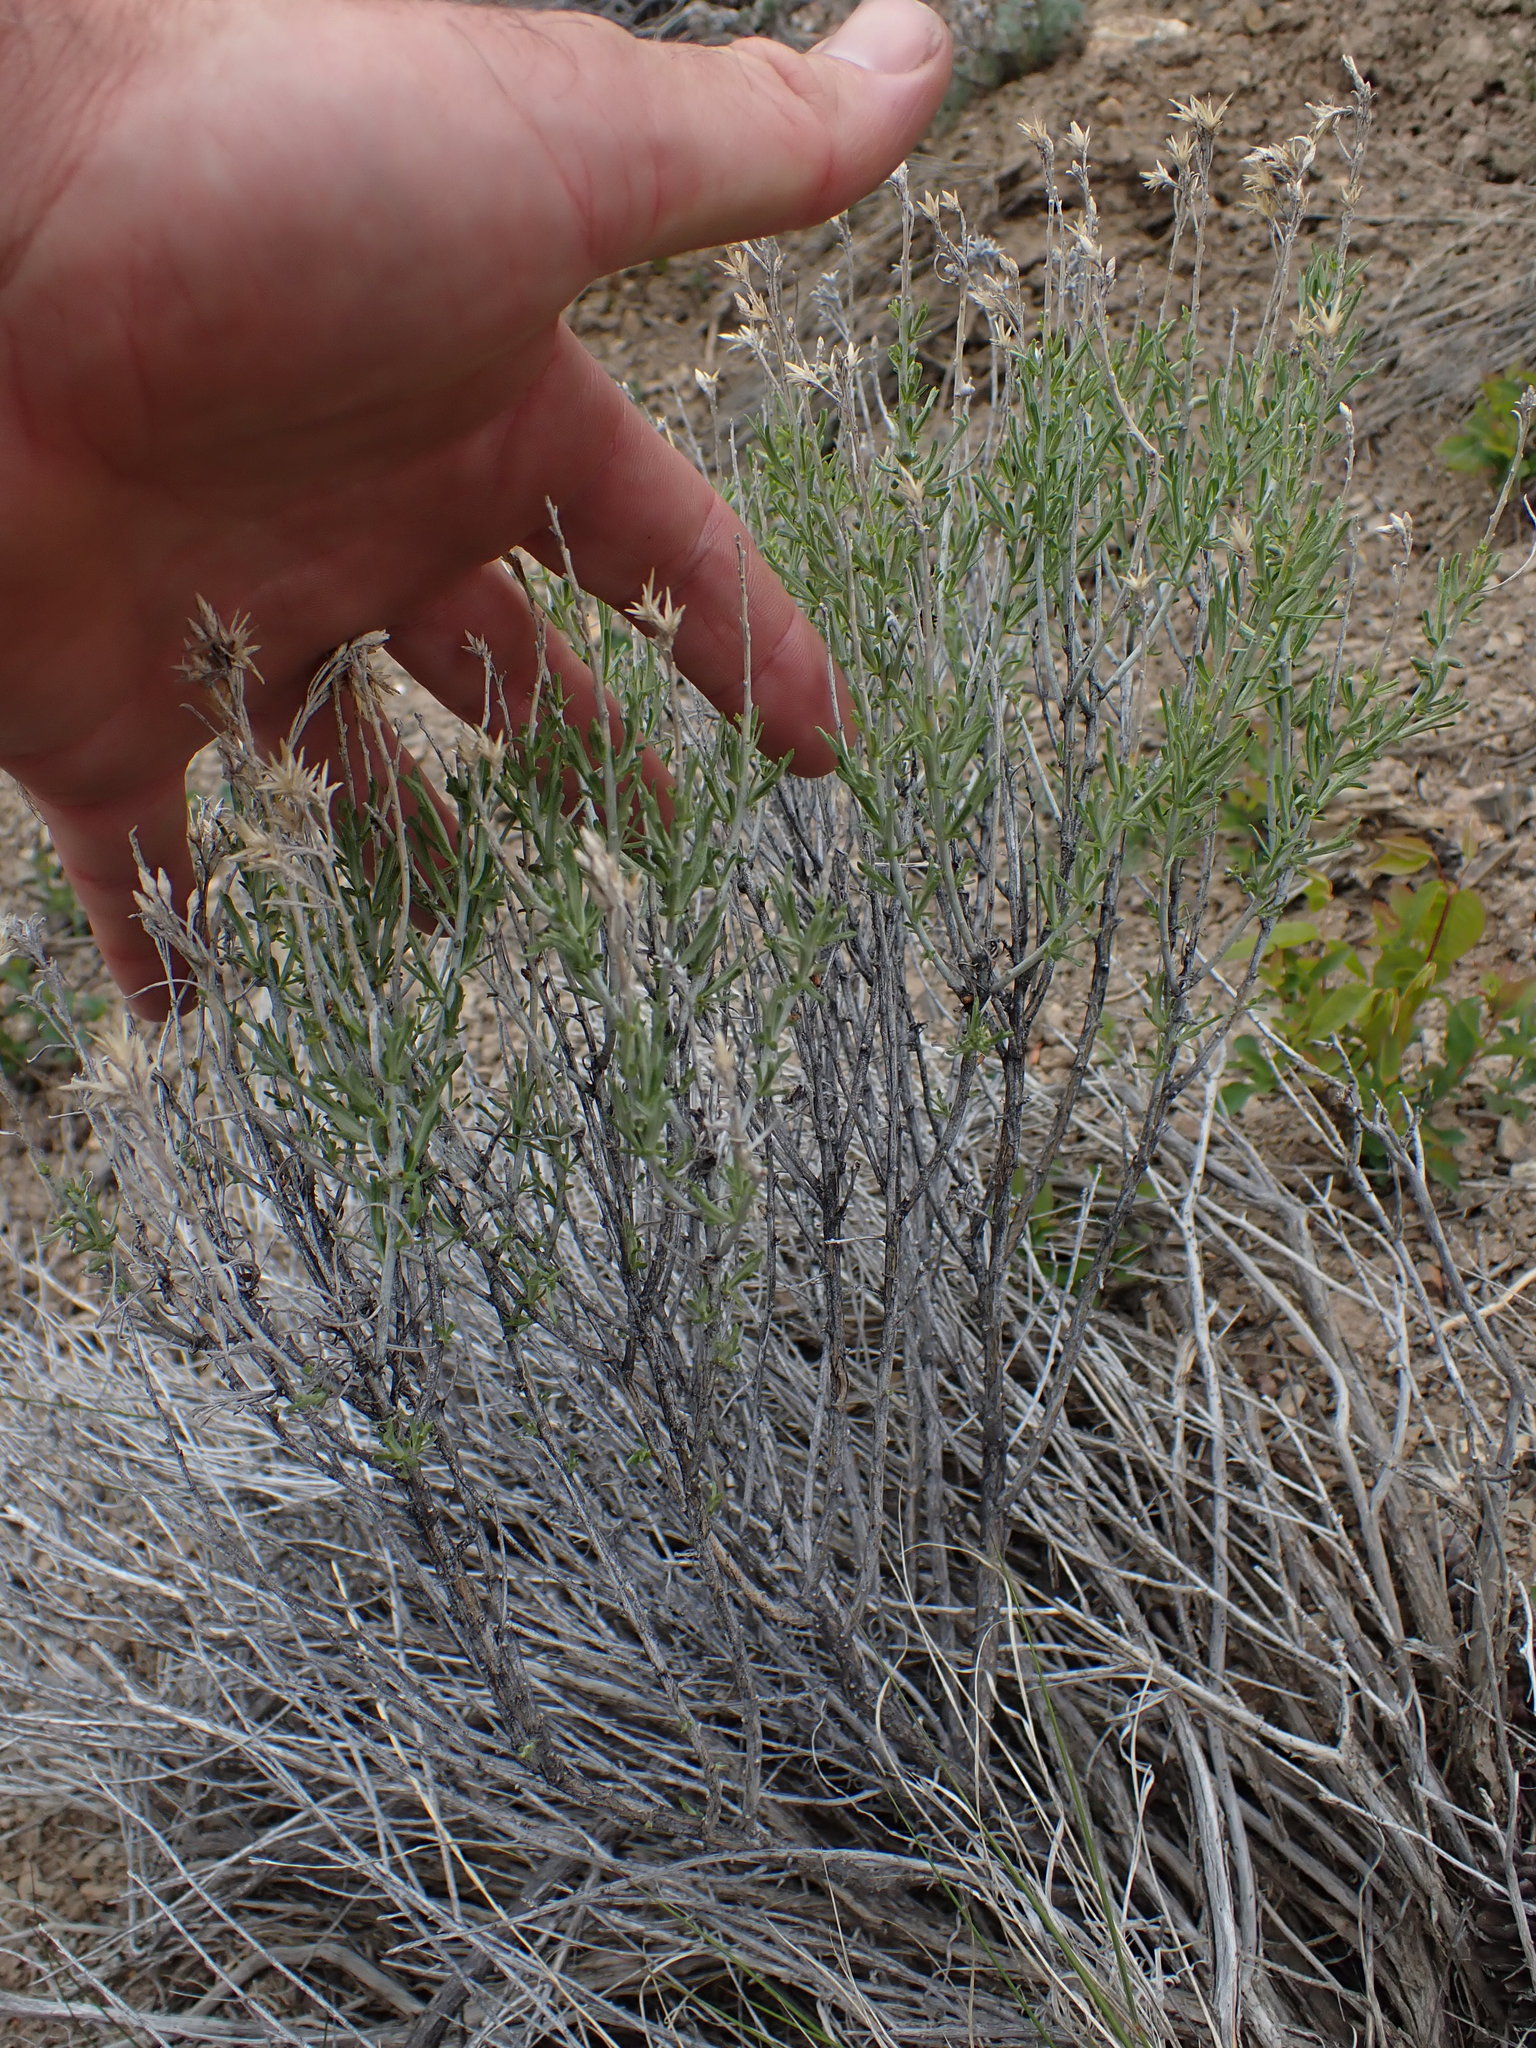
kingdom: Plantae
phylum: Tracheophyta
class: Magnoliopsida
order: Asterales
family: Asteraceae
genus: Ericameria
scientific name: Ericameria nauseosa
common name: Rubber rabbitbrush
